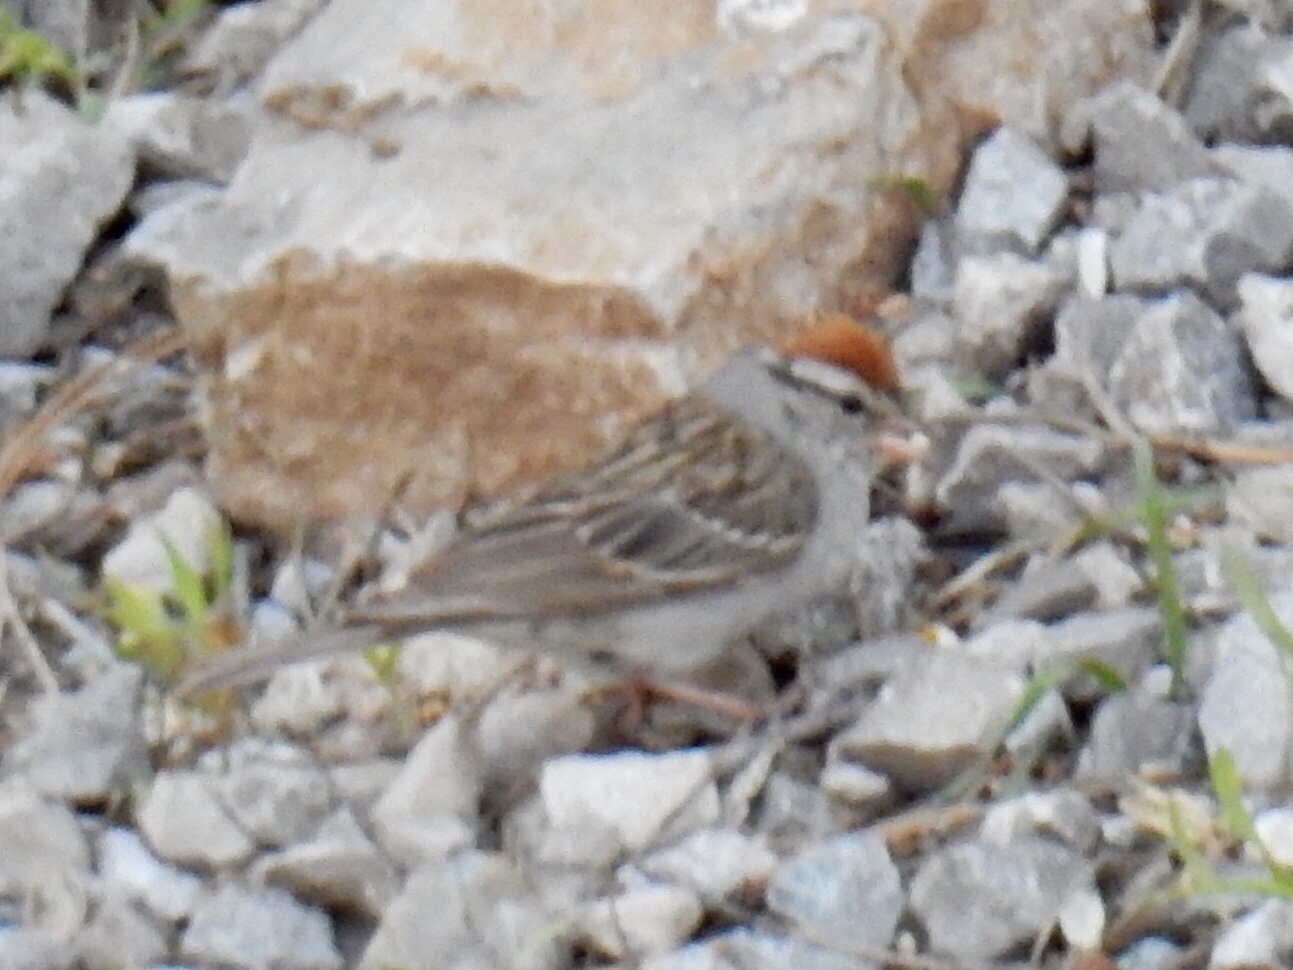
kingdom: Animalia
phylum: Chordata
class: Aves
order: Passeriformes
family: Passerellidae
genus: Spizella
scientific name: Spizella passerina
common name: Chipping sparrow
